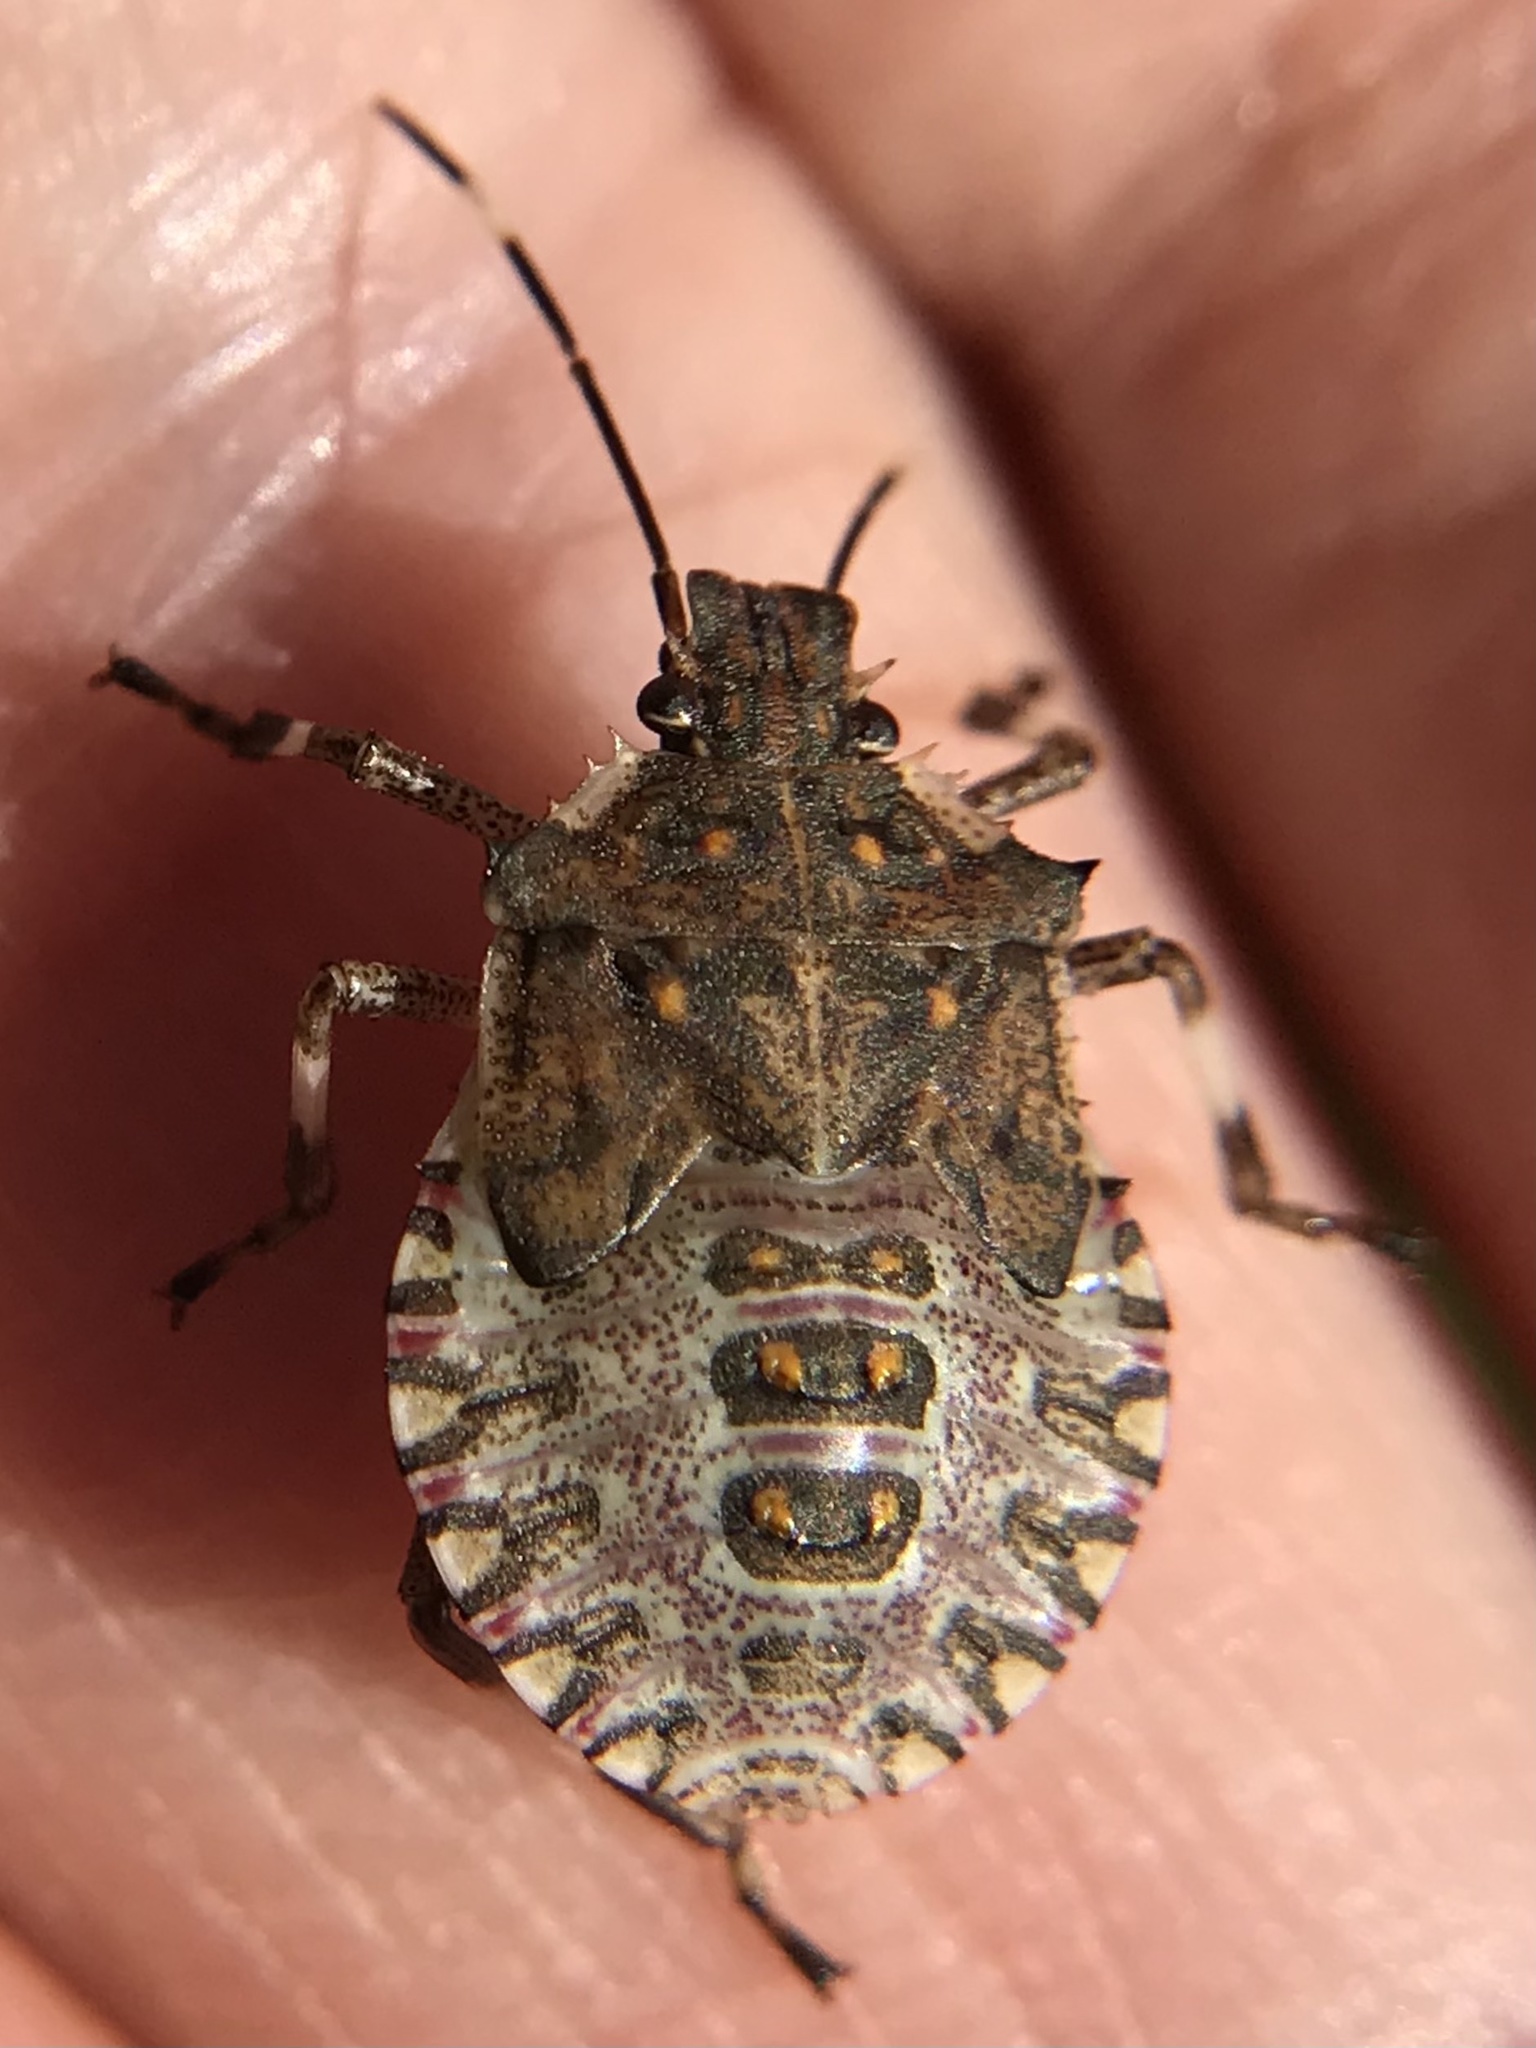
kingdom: Animalia
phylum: Arthropoda
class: Insecta
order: Hemiptera
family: Pentatomidae
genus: Halyomorpha
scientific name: Halyomorpha halys
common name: Brown marmorated stink bug
